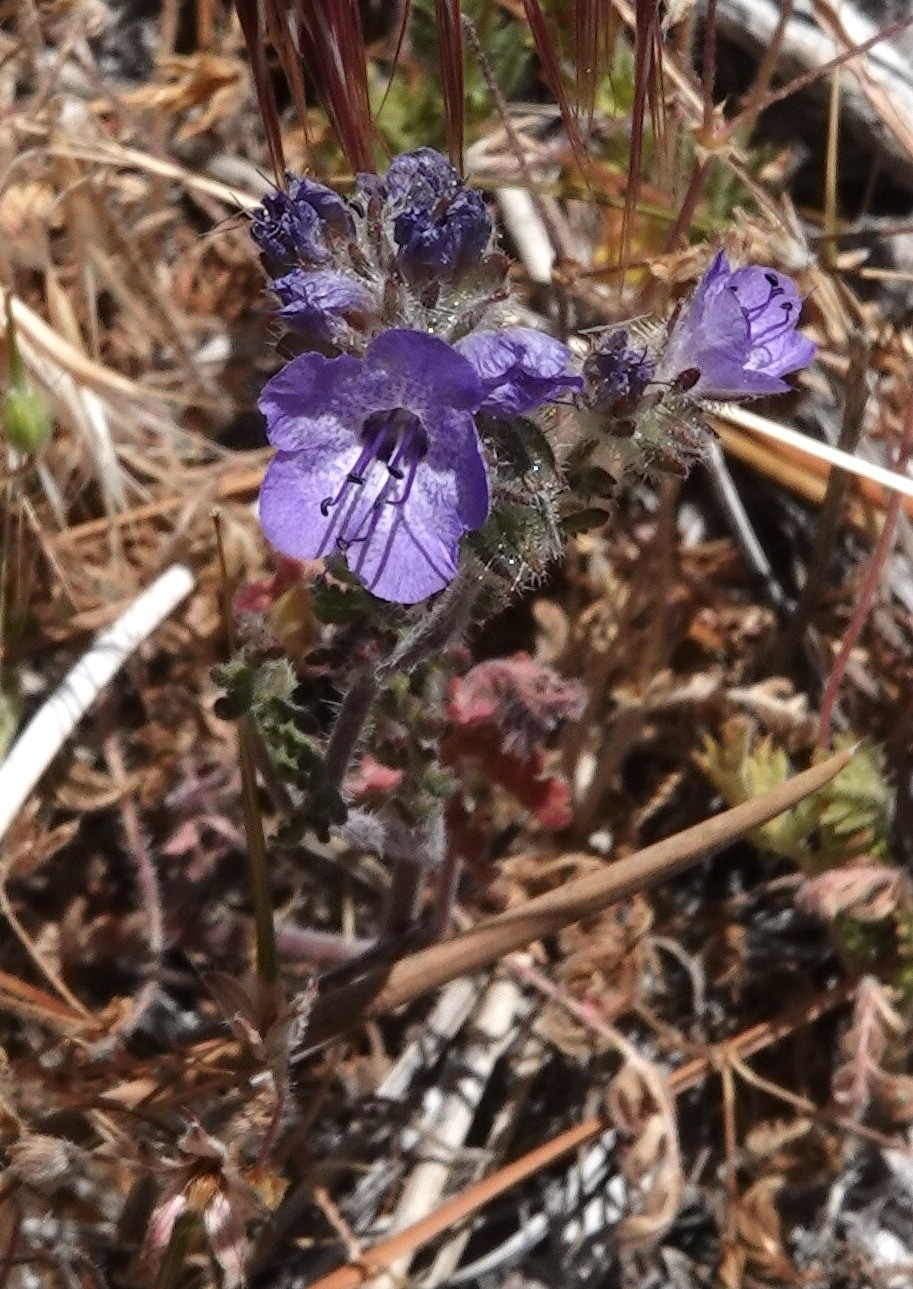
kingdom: Plantae
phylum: Tracheophyta
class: Magnoliopsida
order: Boraginales
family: Hydrophyllaceae
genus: Phacelia
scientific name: Phacelia distans
